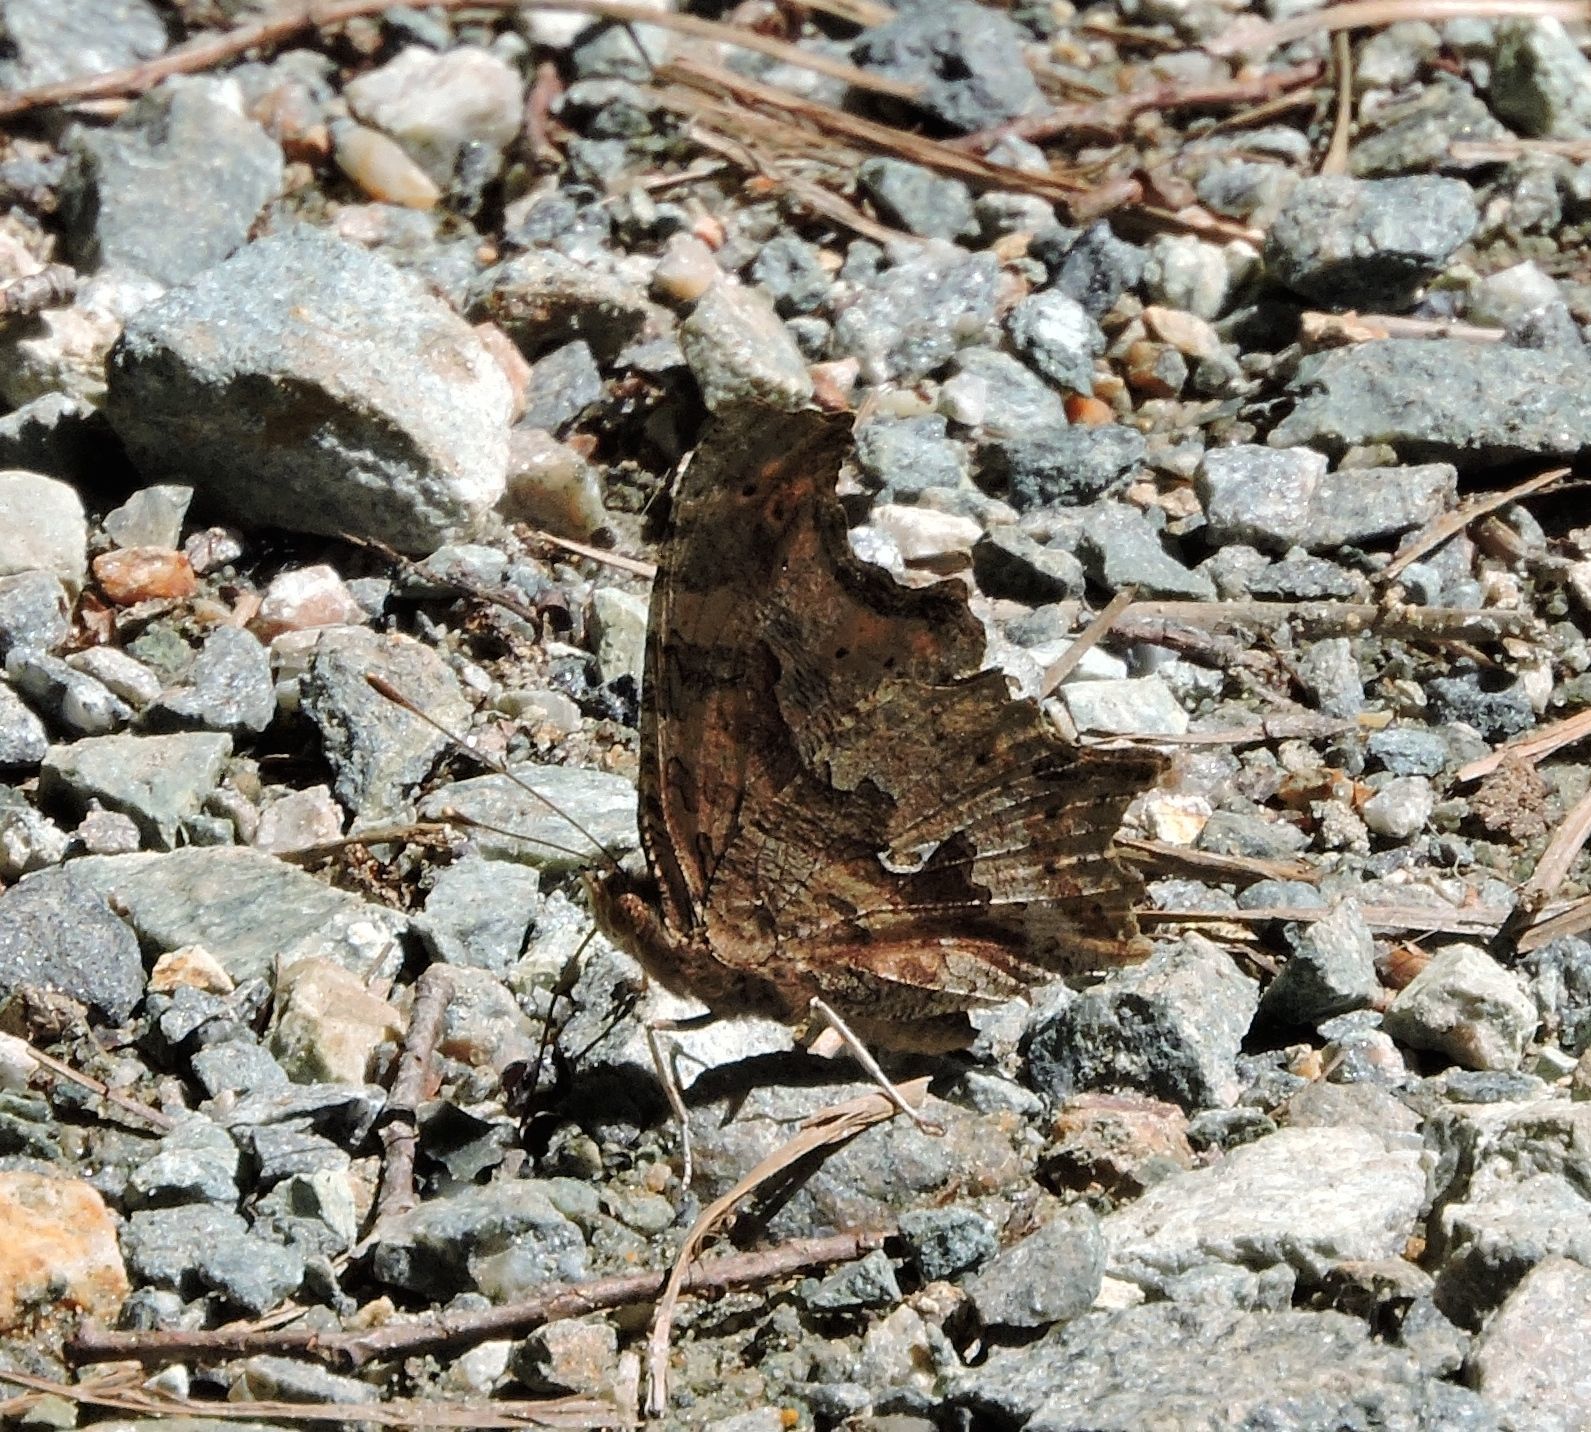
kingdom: Animalia
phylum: Arthropoda
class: Insecta
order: Lepidoptera
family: Nymphalidae
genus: Polygonia
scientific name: Polygonia comma
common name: Eastern comma
